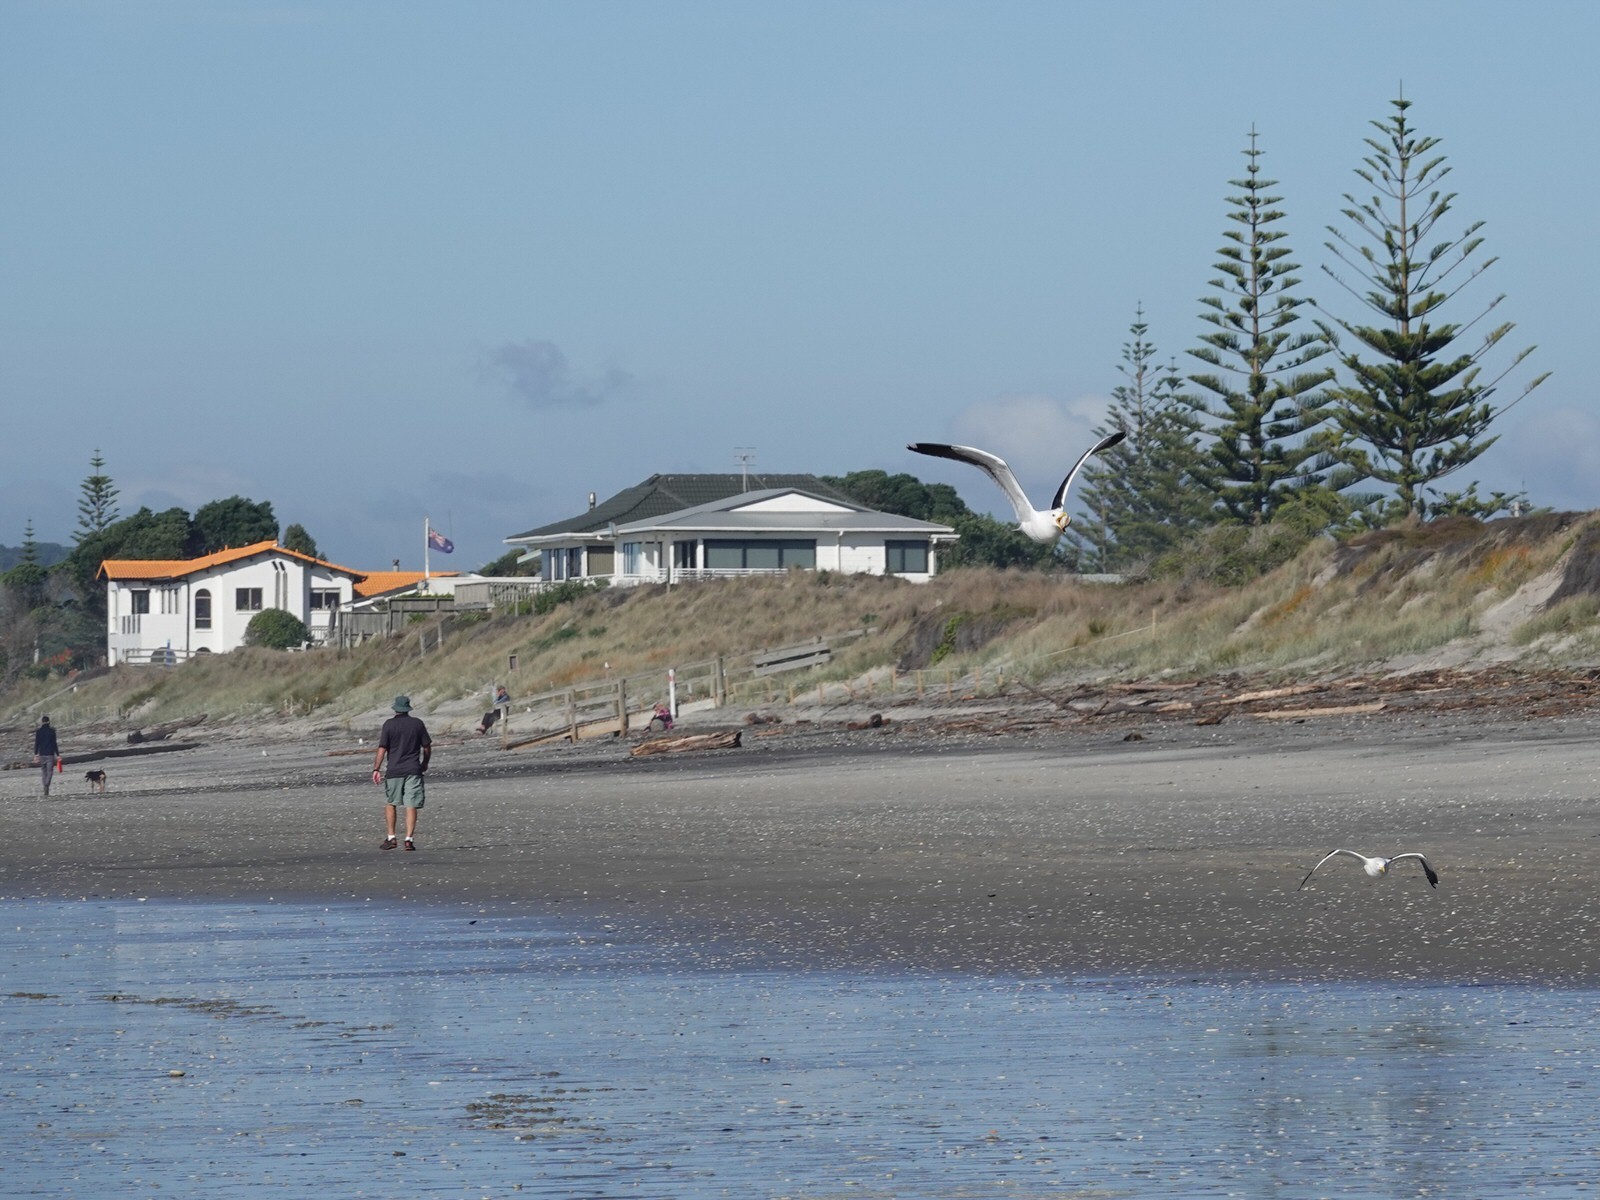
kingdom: Animalia
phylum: Chordata
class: Aves
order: Charadriiformes
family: Laridae
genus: Larus
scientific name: Larus dominicanus
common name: Kelp gull
